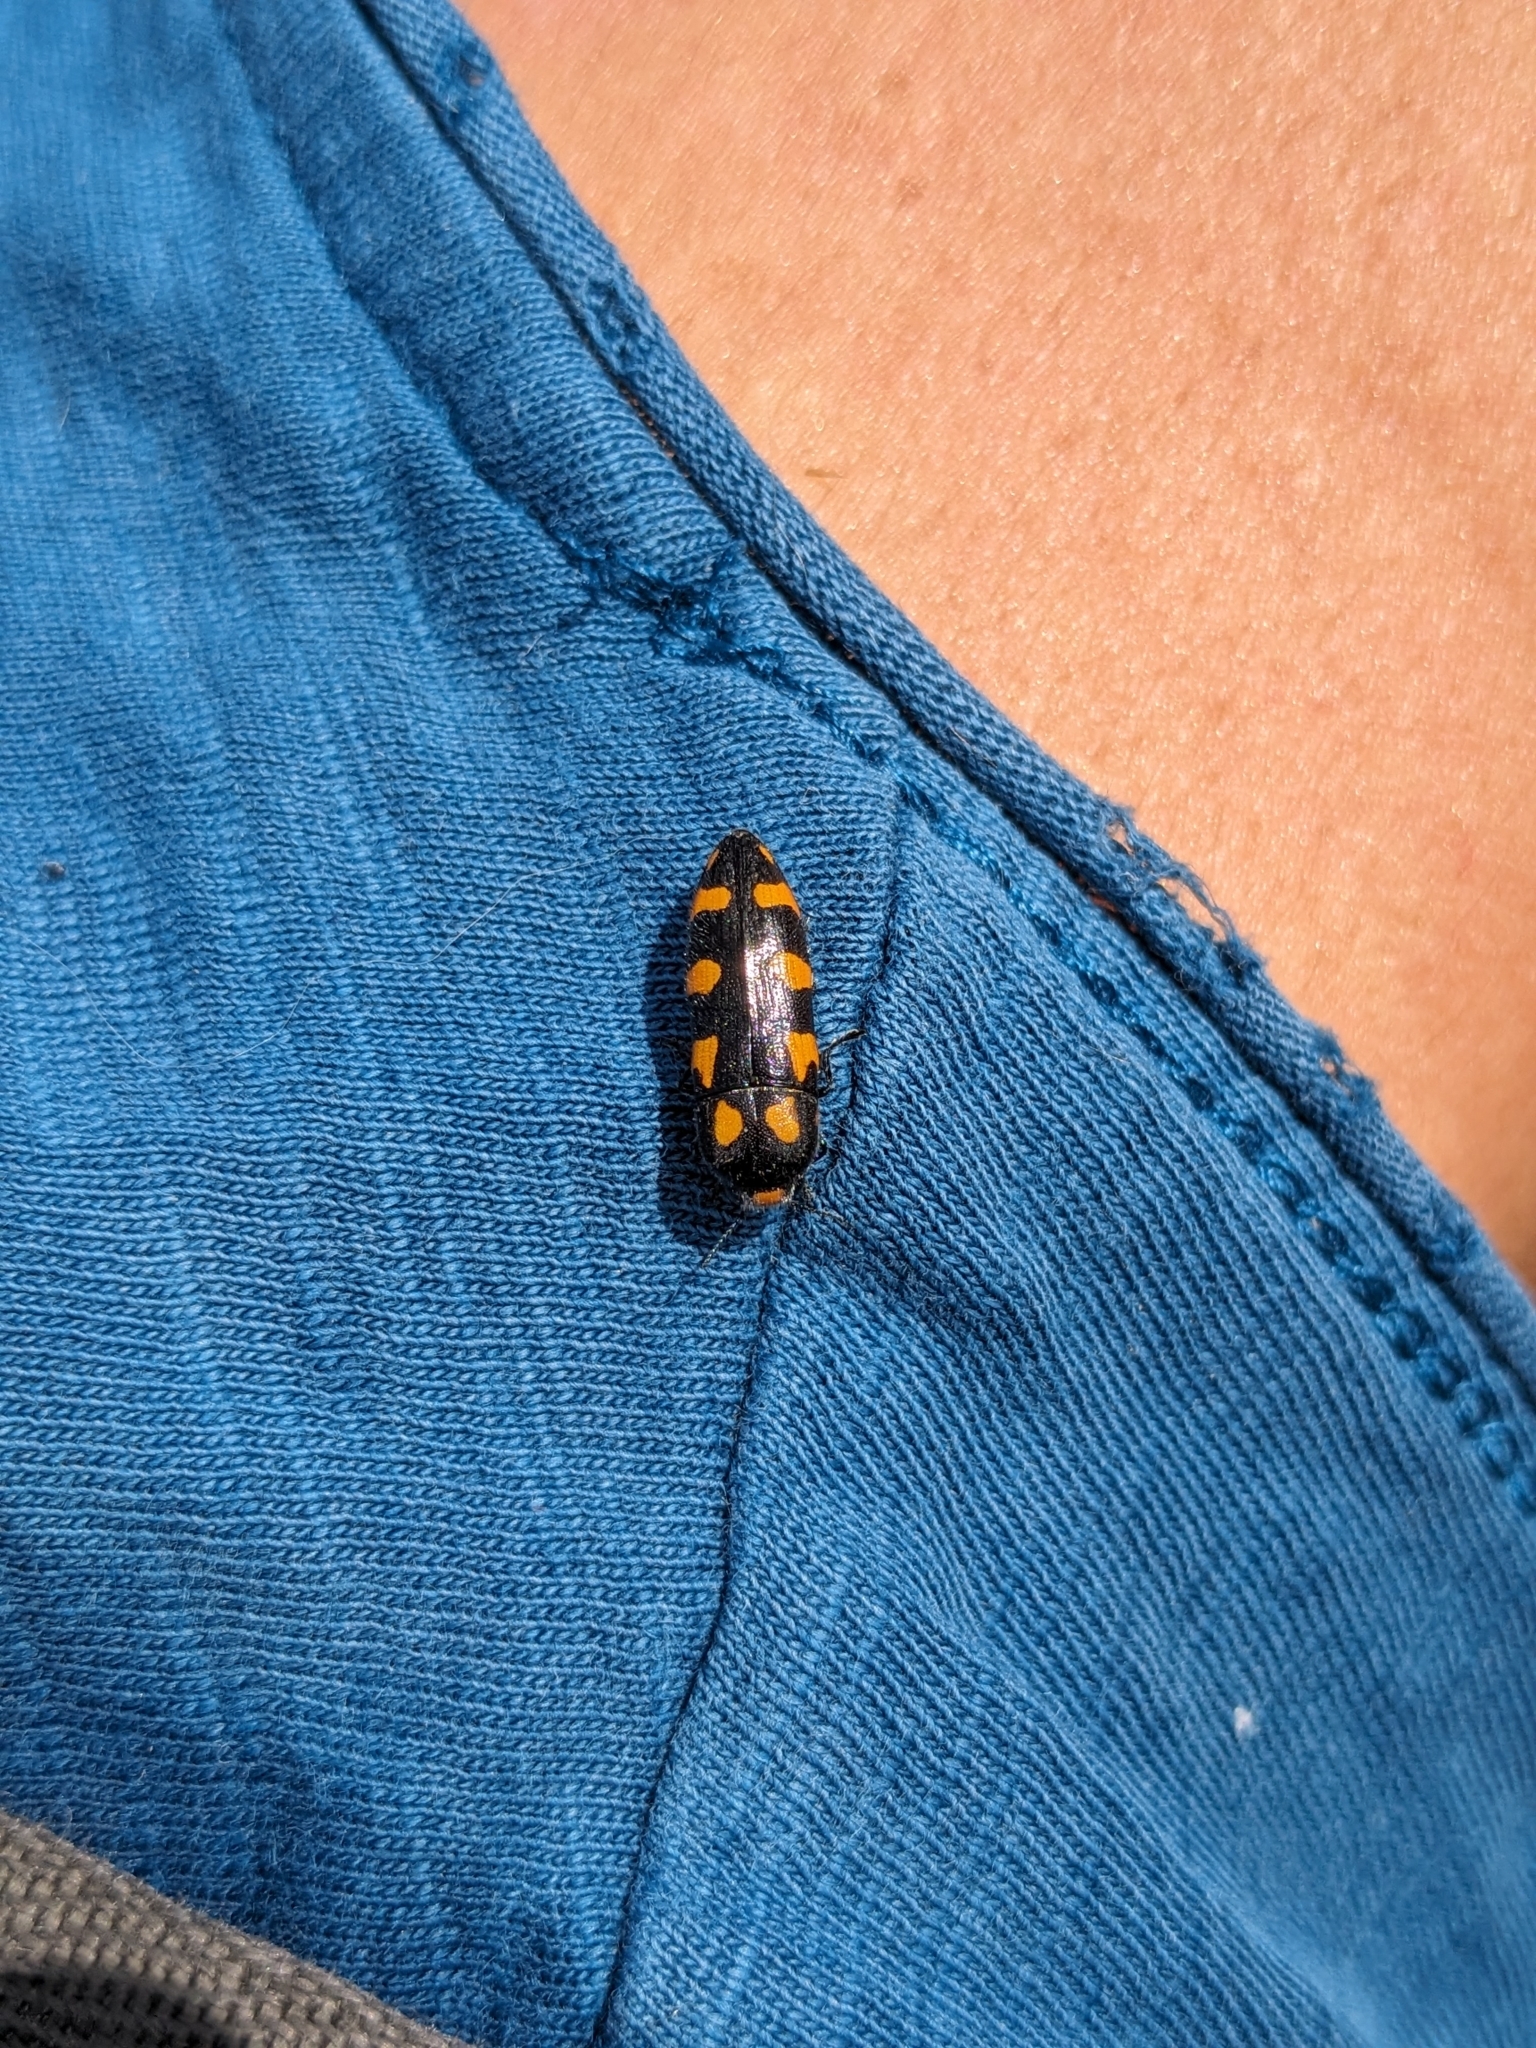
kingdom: Animalia
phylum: Arthropoda
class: Insecta
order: Coleoptera
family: Buprestidae
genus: Ptosima
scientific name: Ptosima undecimmaculata
